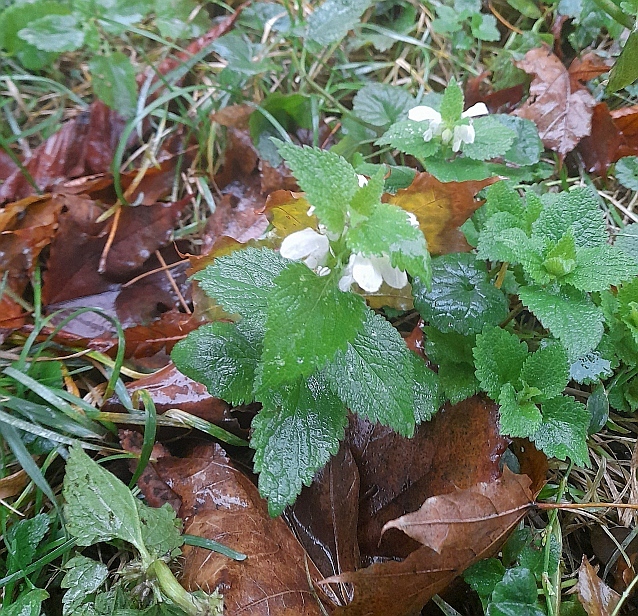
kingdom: Plantae
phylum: Tracheophyta
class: Magnoliopsida
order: Lamiales
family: Lamiaceae
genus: Lamium
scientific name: Lamium album
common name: White dead-nettle
